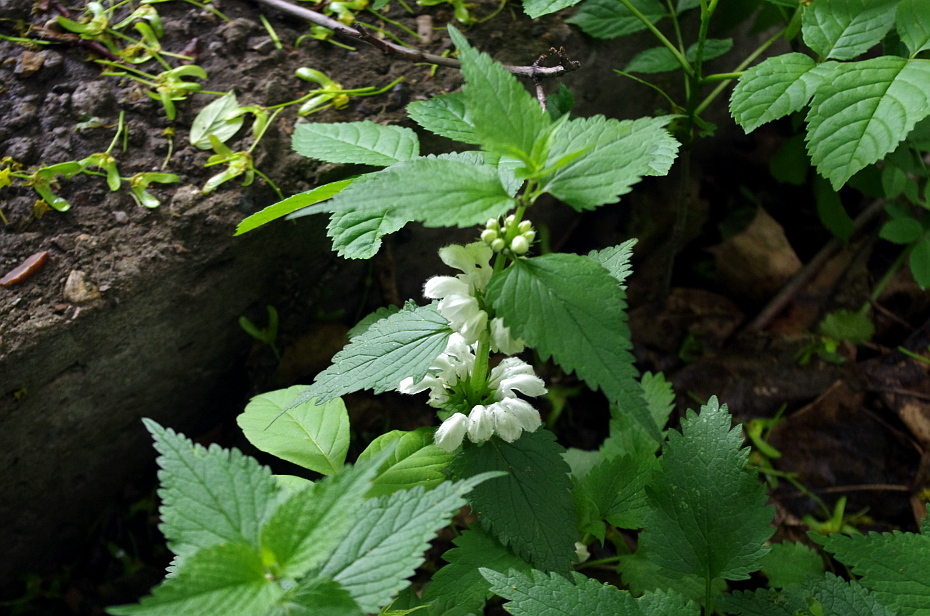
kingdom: Plantae
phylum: Tracheophyta
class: Magnoliopsida
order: Lamiales
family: Lamiaceae
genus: Lamium
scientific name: Lamium album
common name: White dead-nettle
